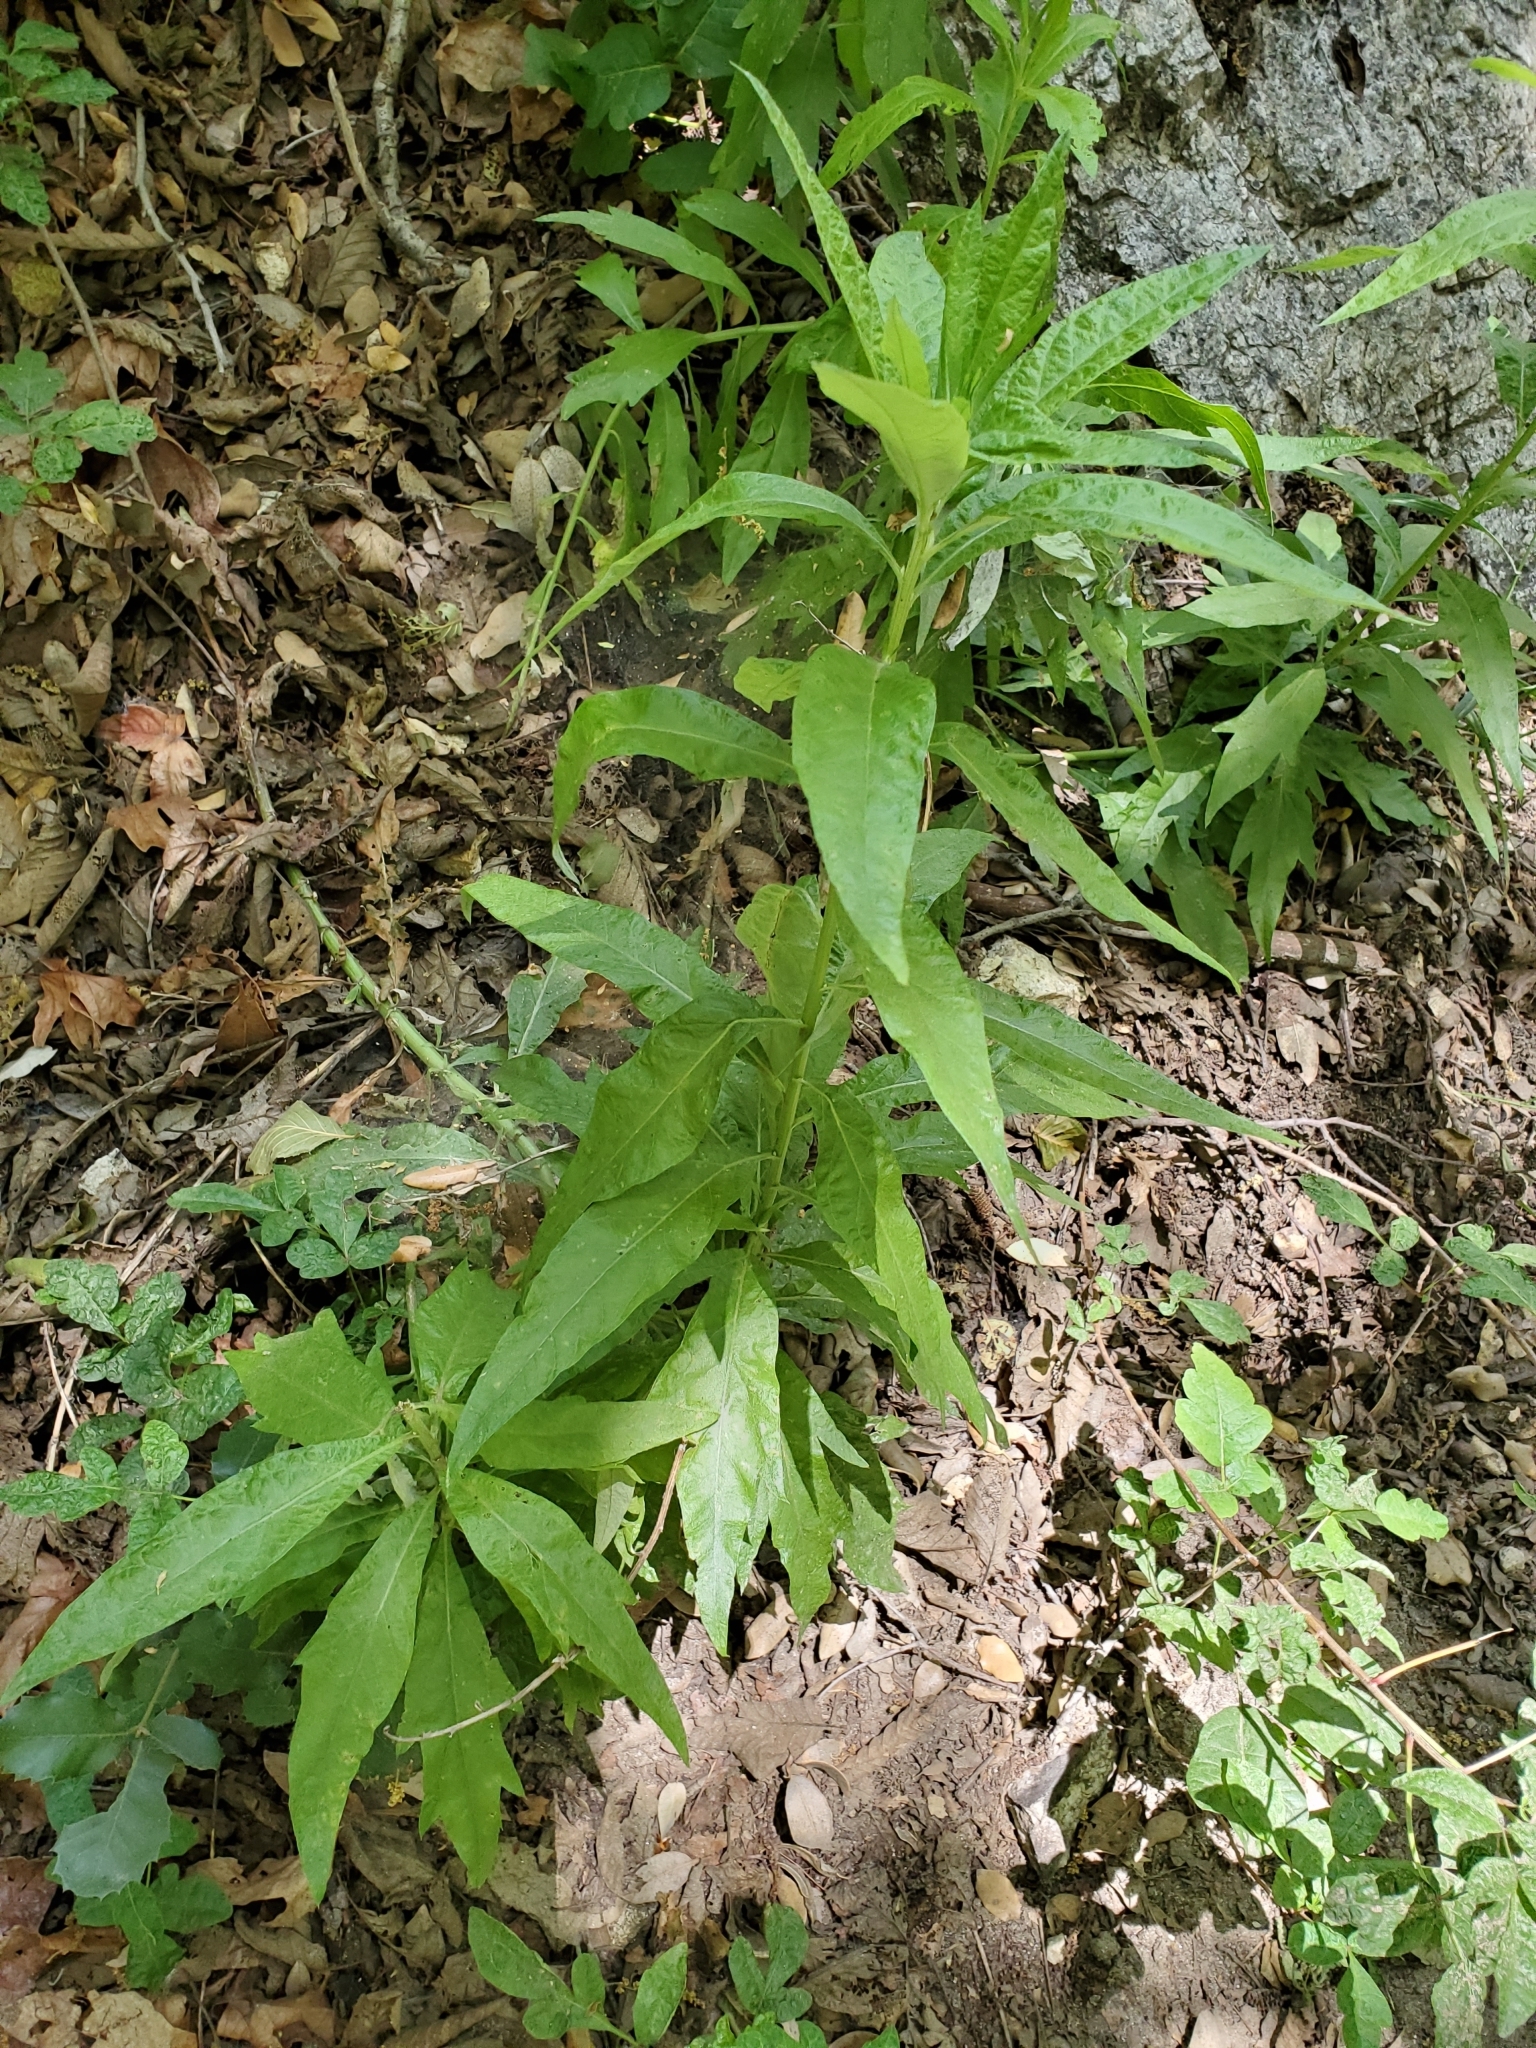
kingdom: Plantae
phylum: Tracheophyta
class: Magnoliopsida
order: Asterales
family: Asteraceae
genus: Artemisia
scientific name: Artemisia douglasiana
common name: Northwest mugwort
